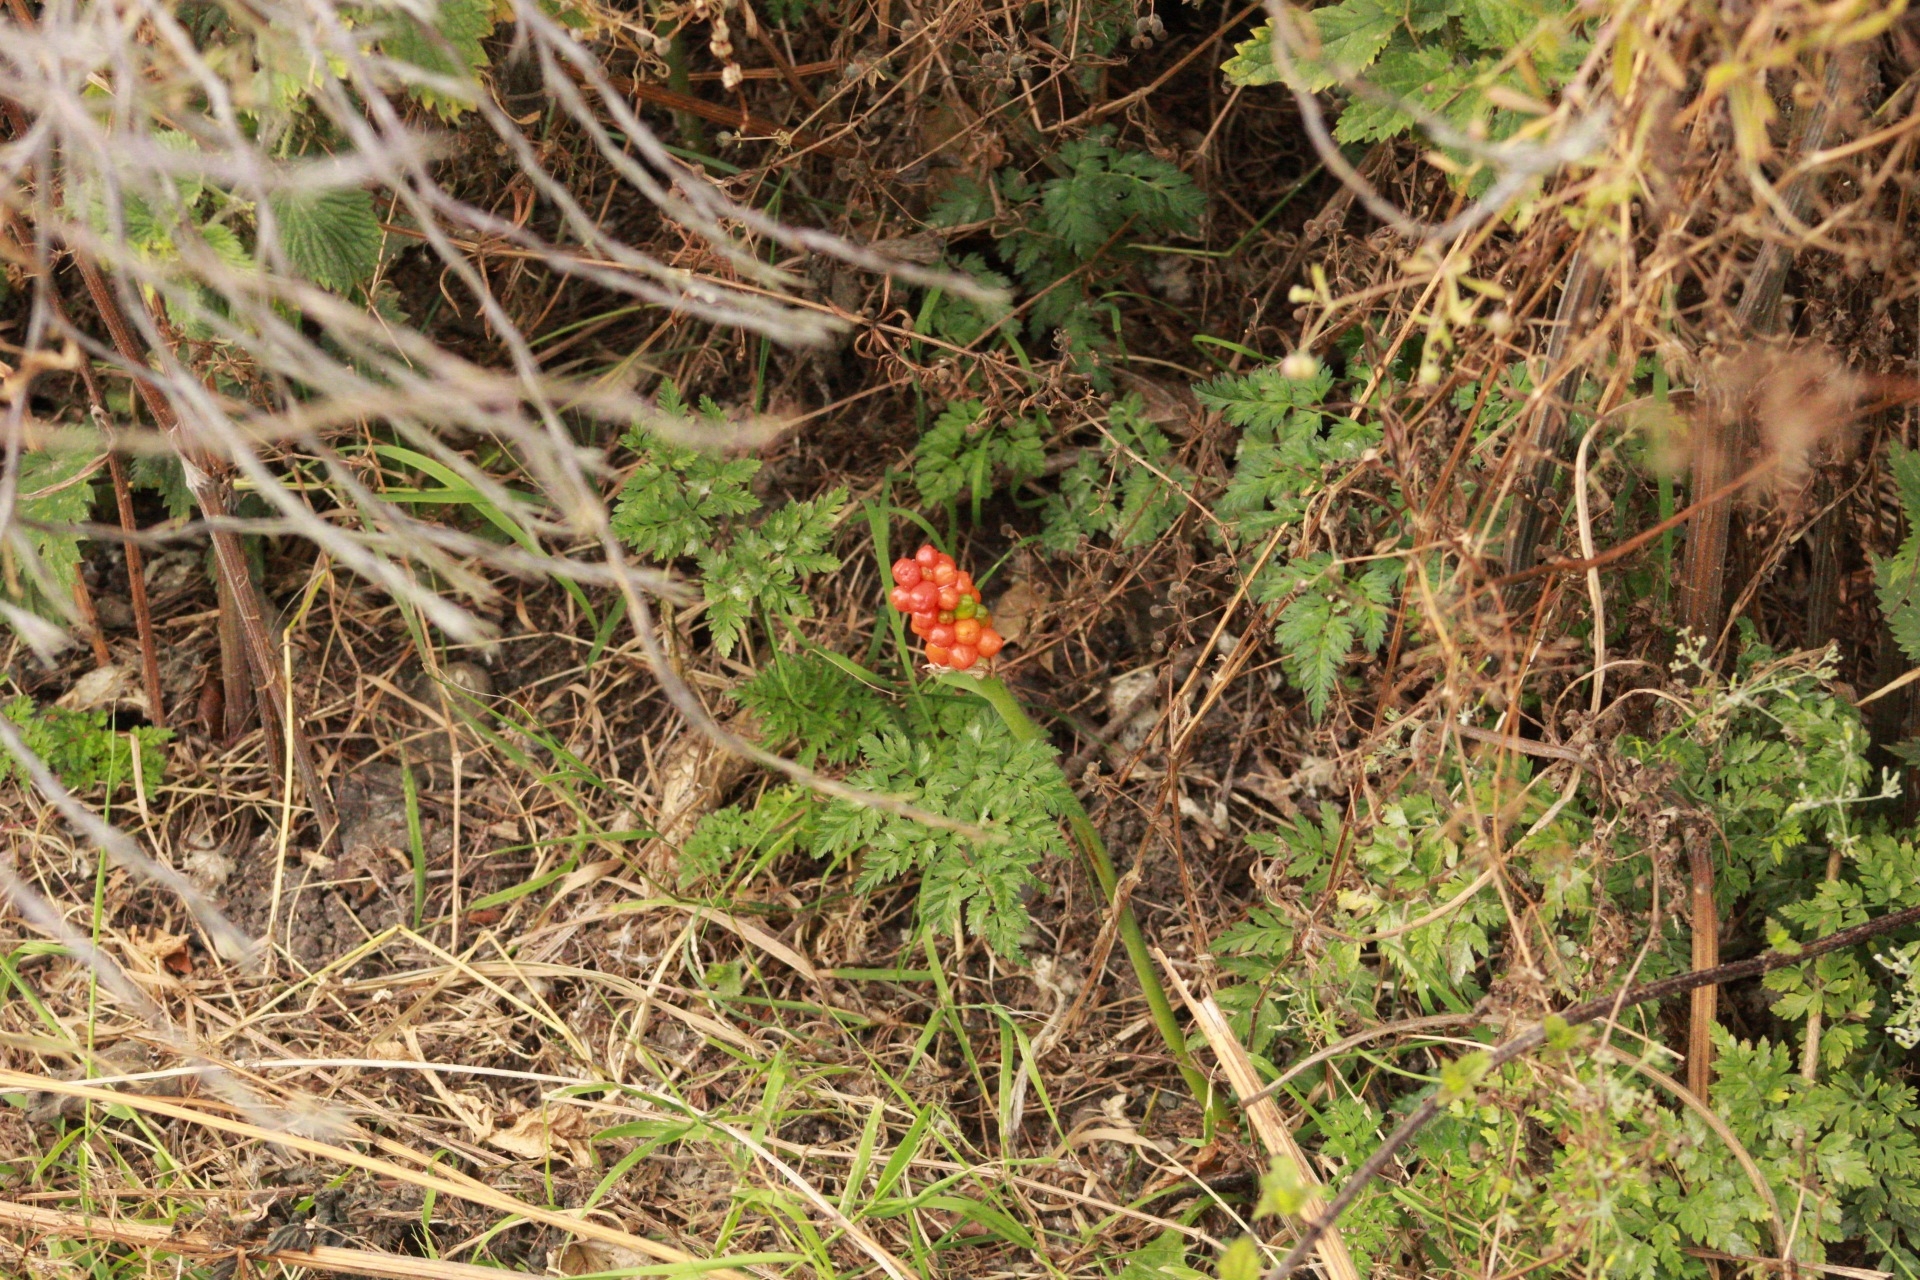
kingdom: Plantae
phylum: Tracheophyta
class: Liliopsida
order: Alismatales
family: Araceae
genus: Arum
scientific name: Arum maculatum
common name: Lords-and-ladies
